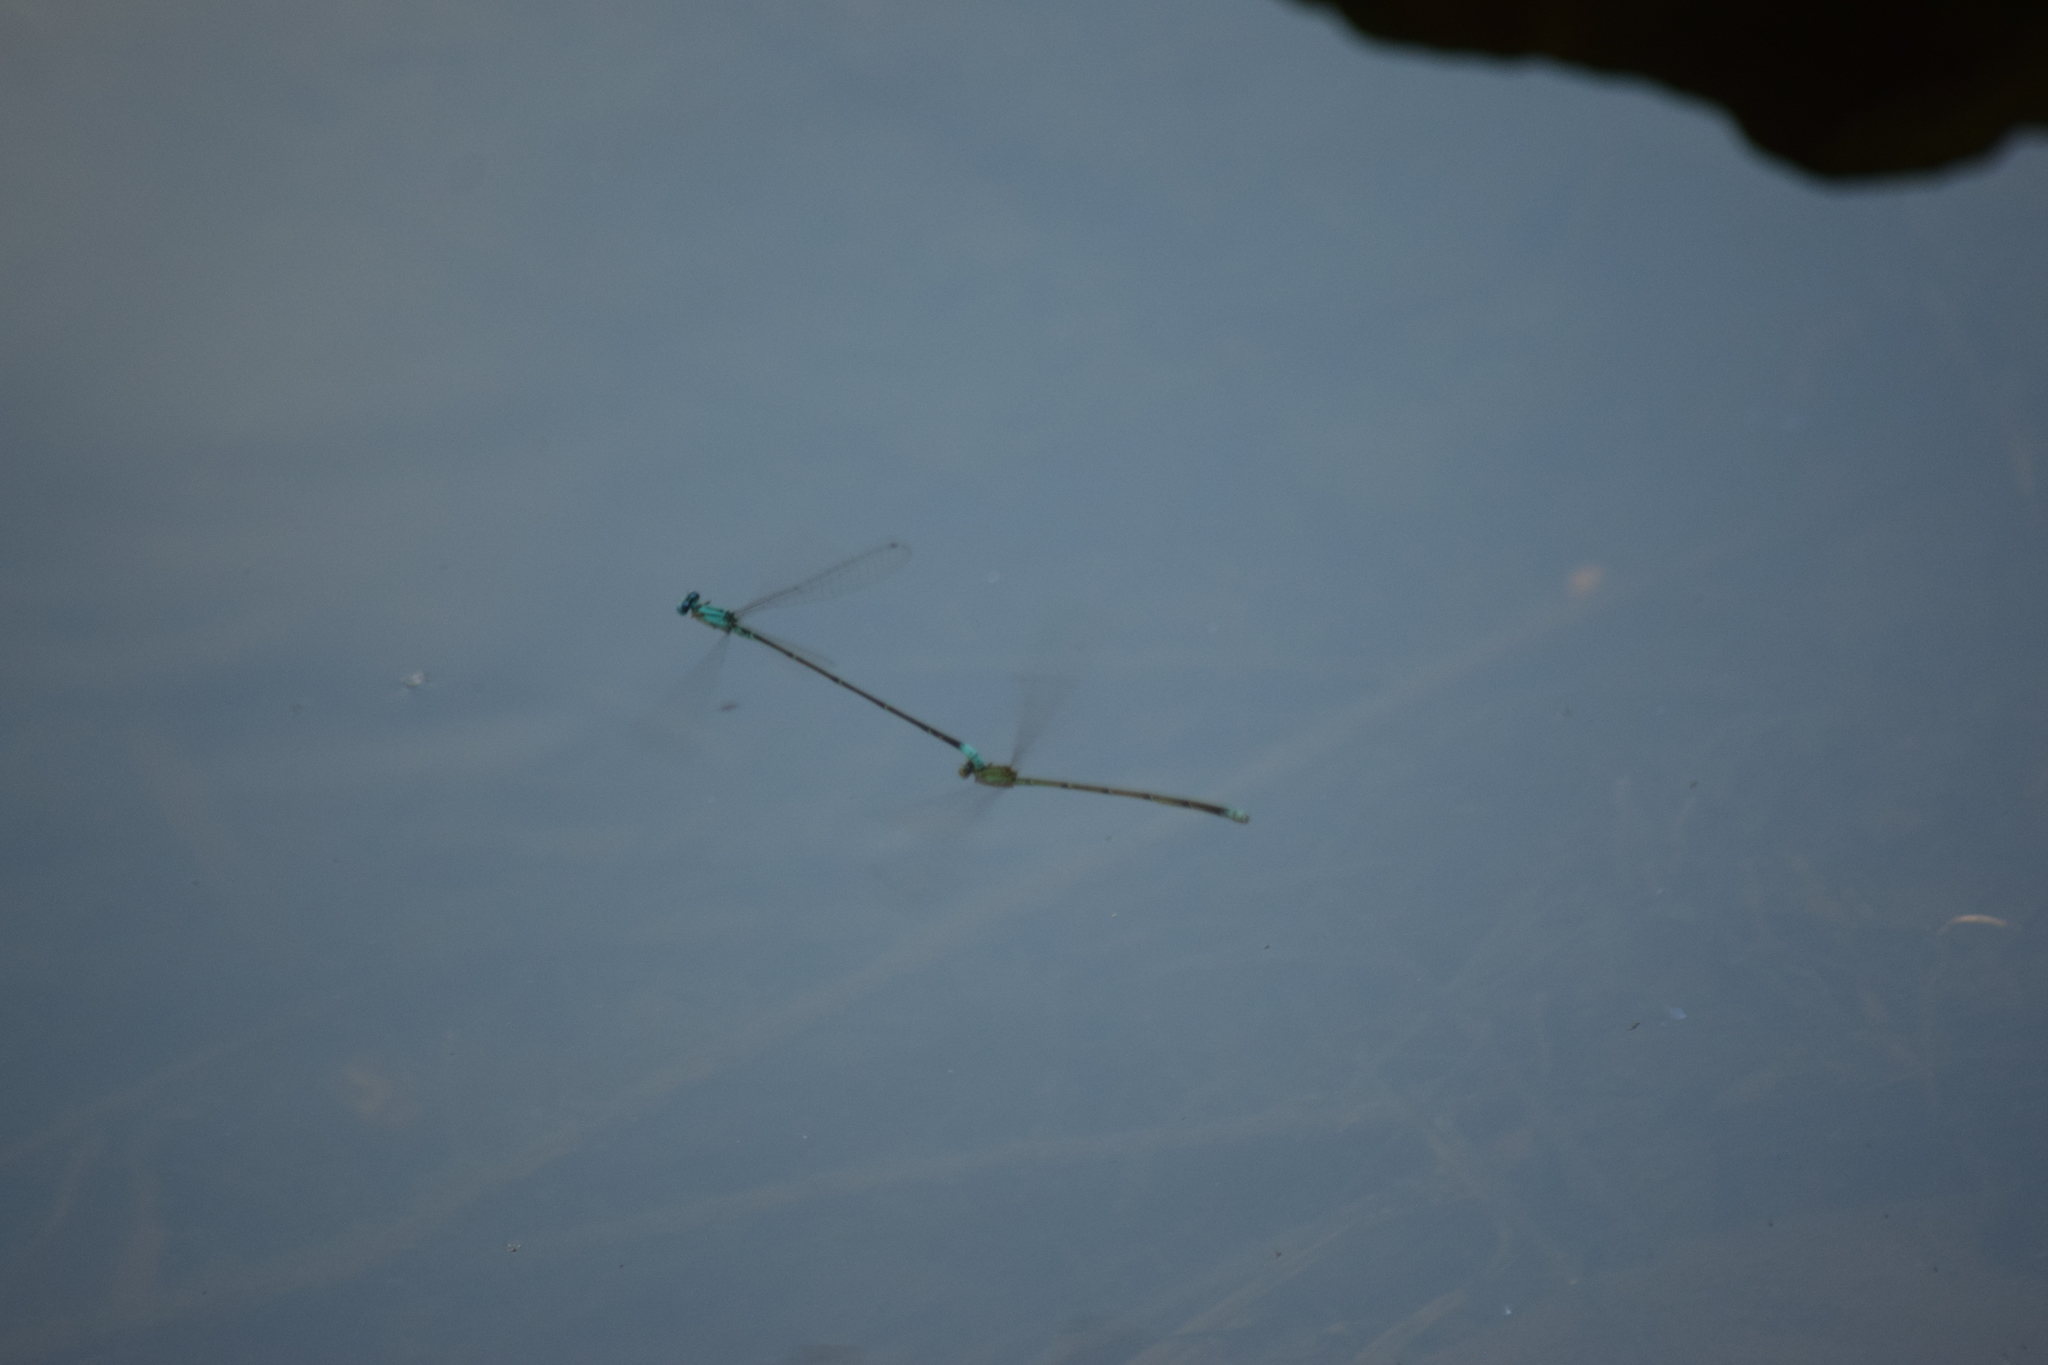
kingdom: Animalia
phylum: Arthropoda
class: Insecta
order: Odonata
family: Coenagrionidae
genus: Enallagma
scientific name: Enallagma pallidum
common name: Pale bluet
